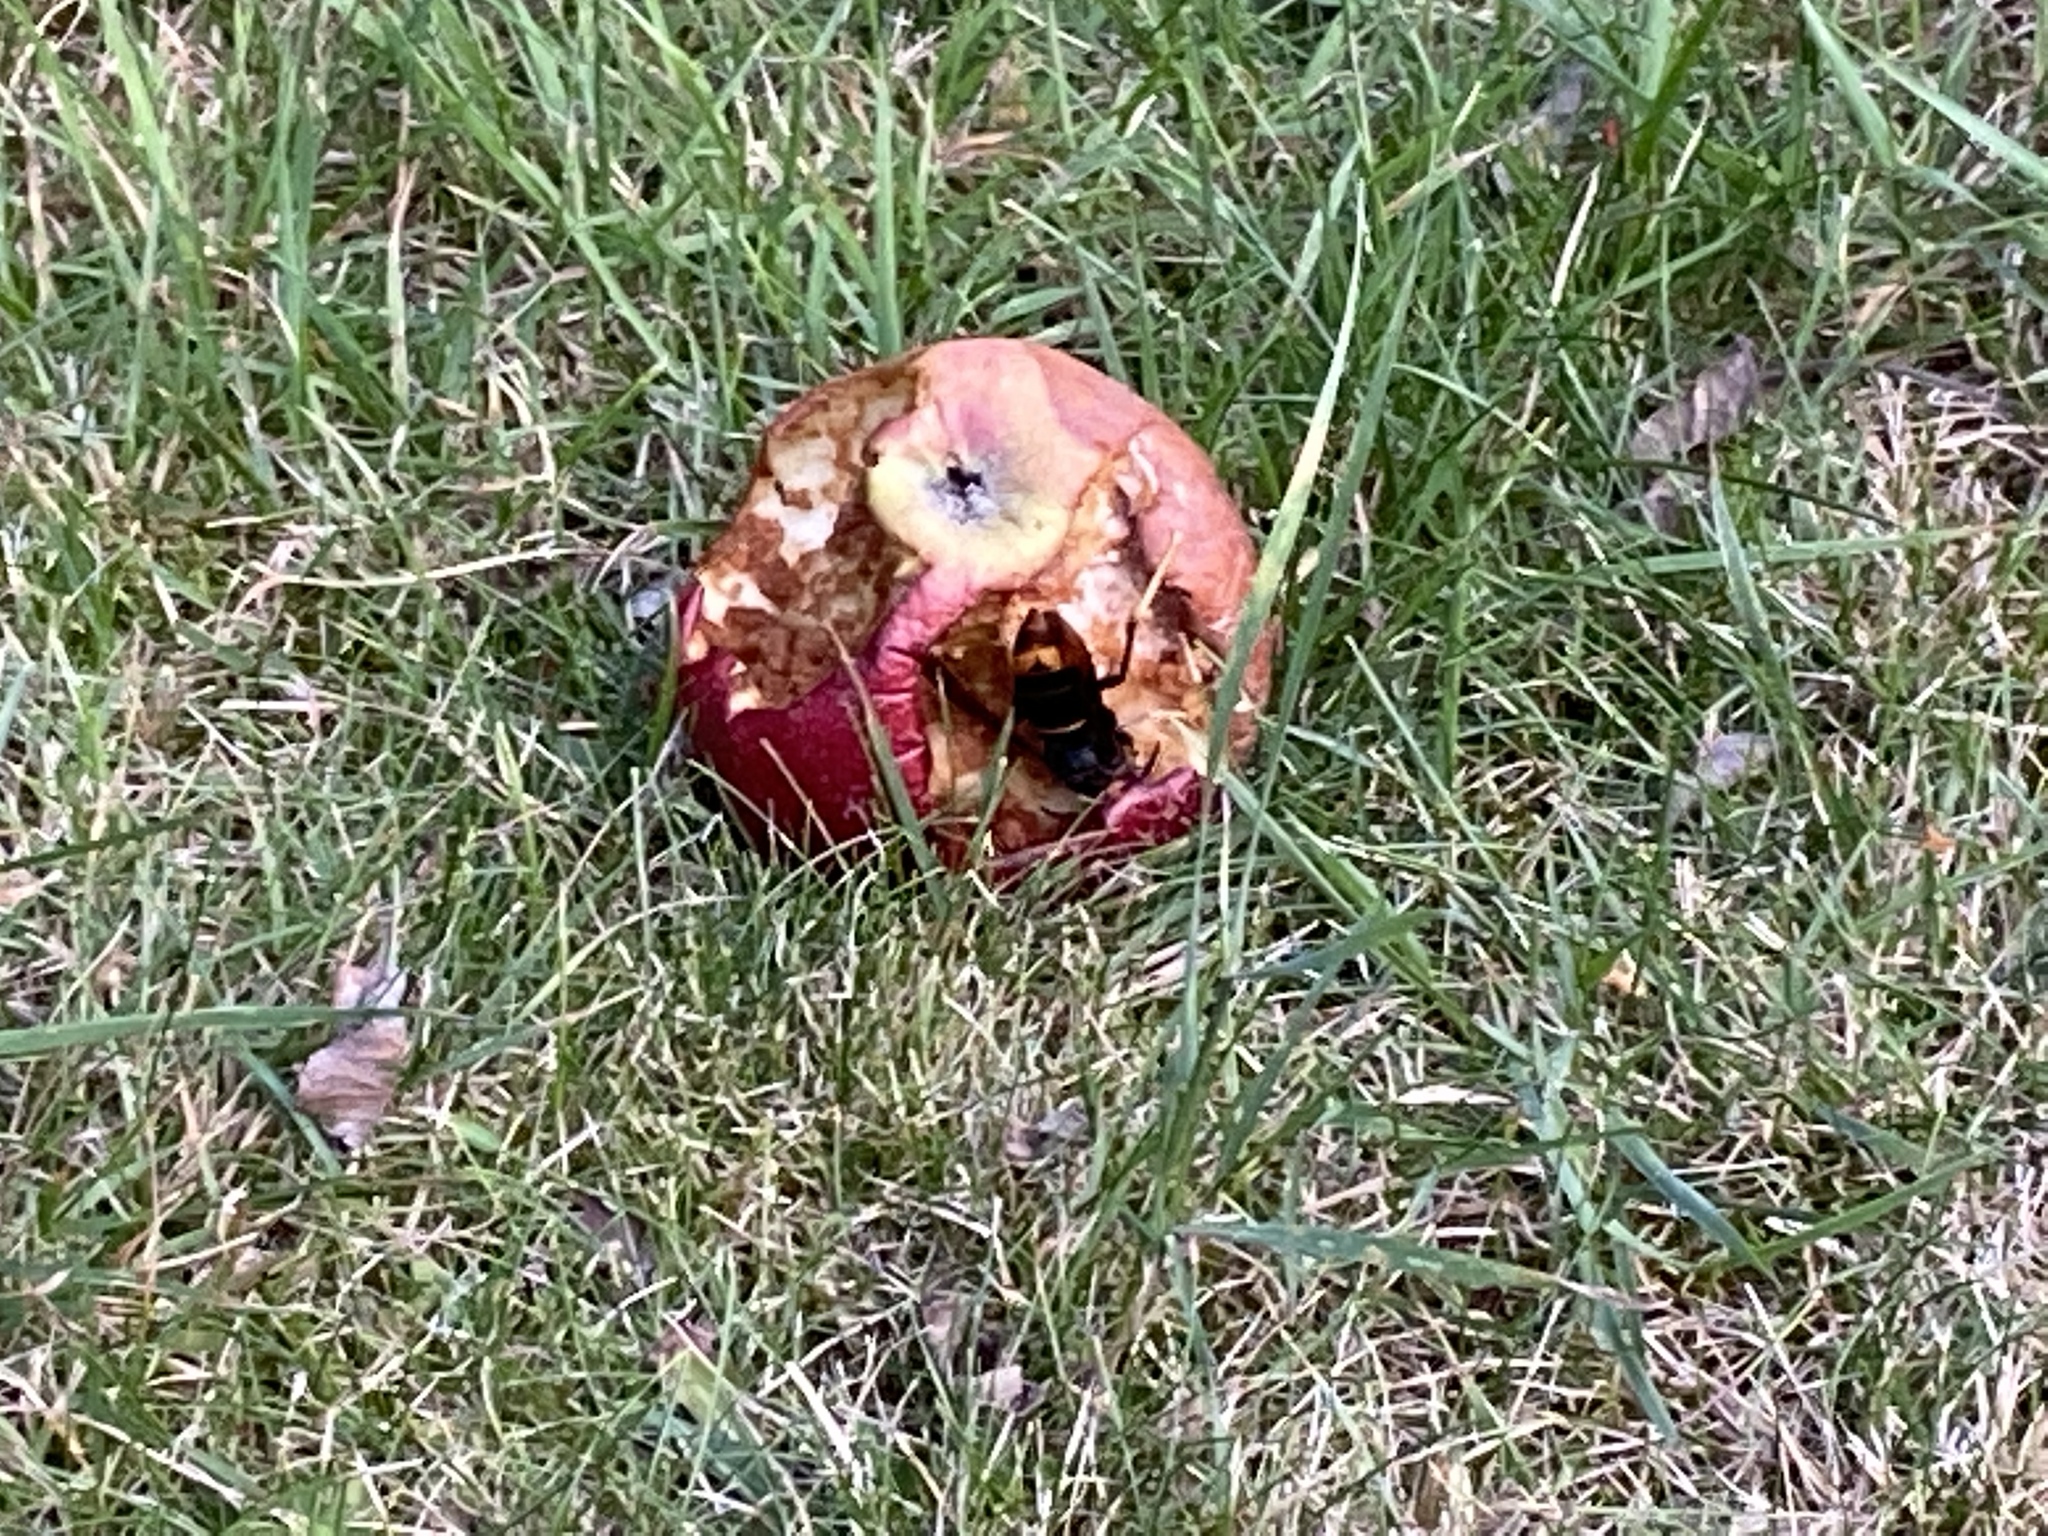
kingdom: Animalia
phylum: Arthropoda
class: Insecta
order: Hymenoptera
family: Vespidae
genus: Vespa
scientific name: Vespa velutina
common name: Asian hornet
